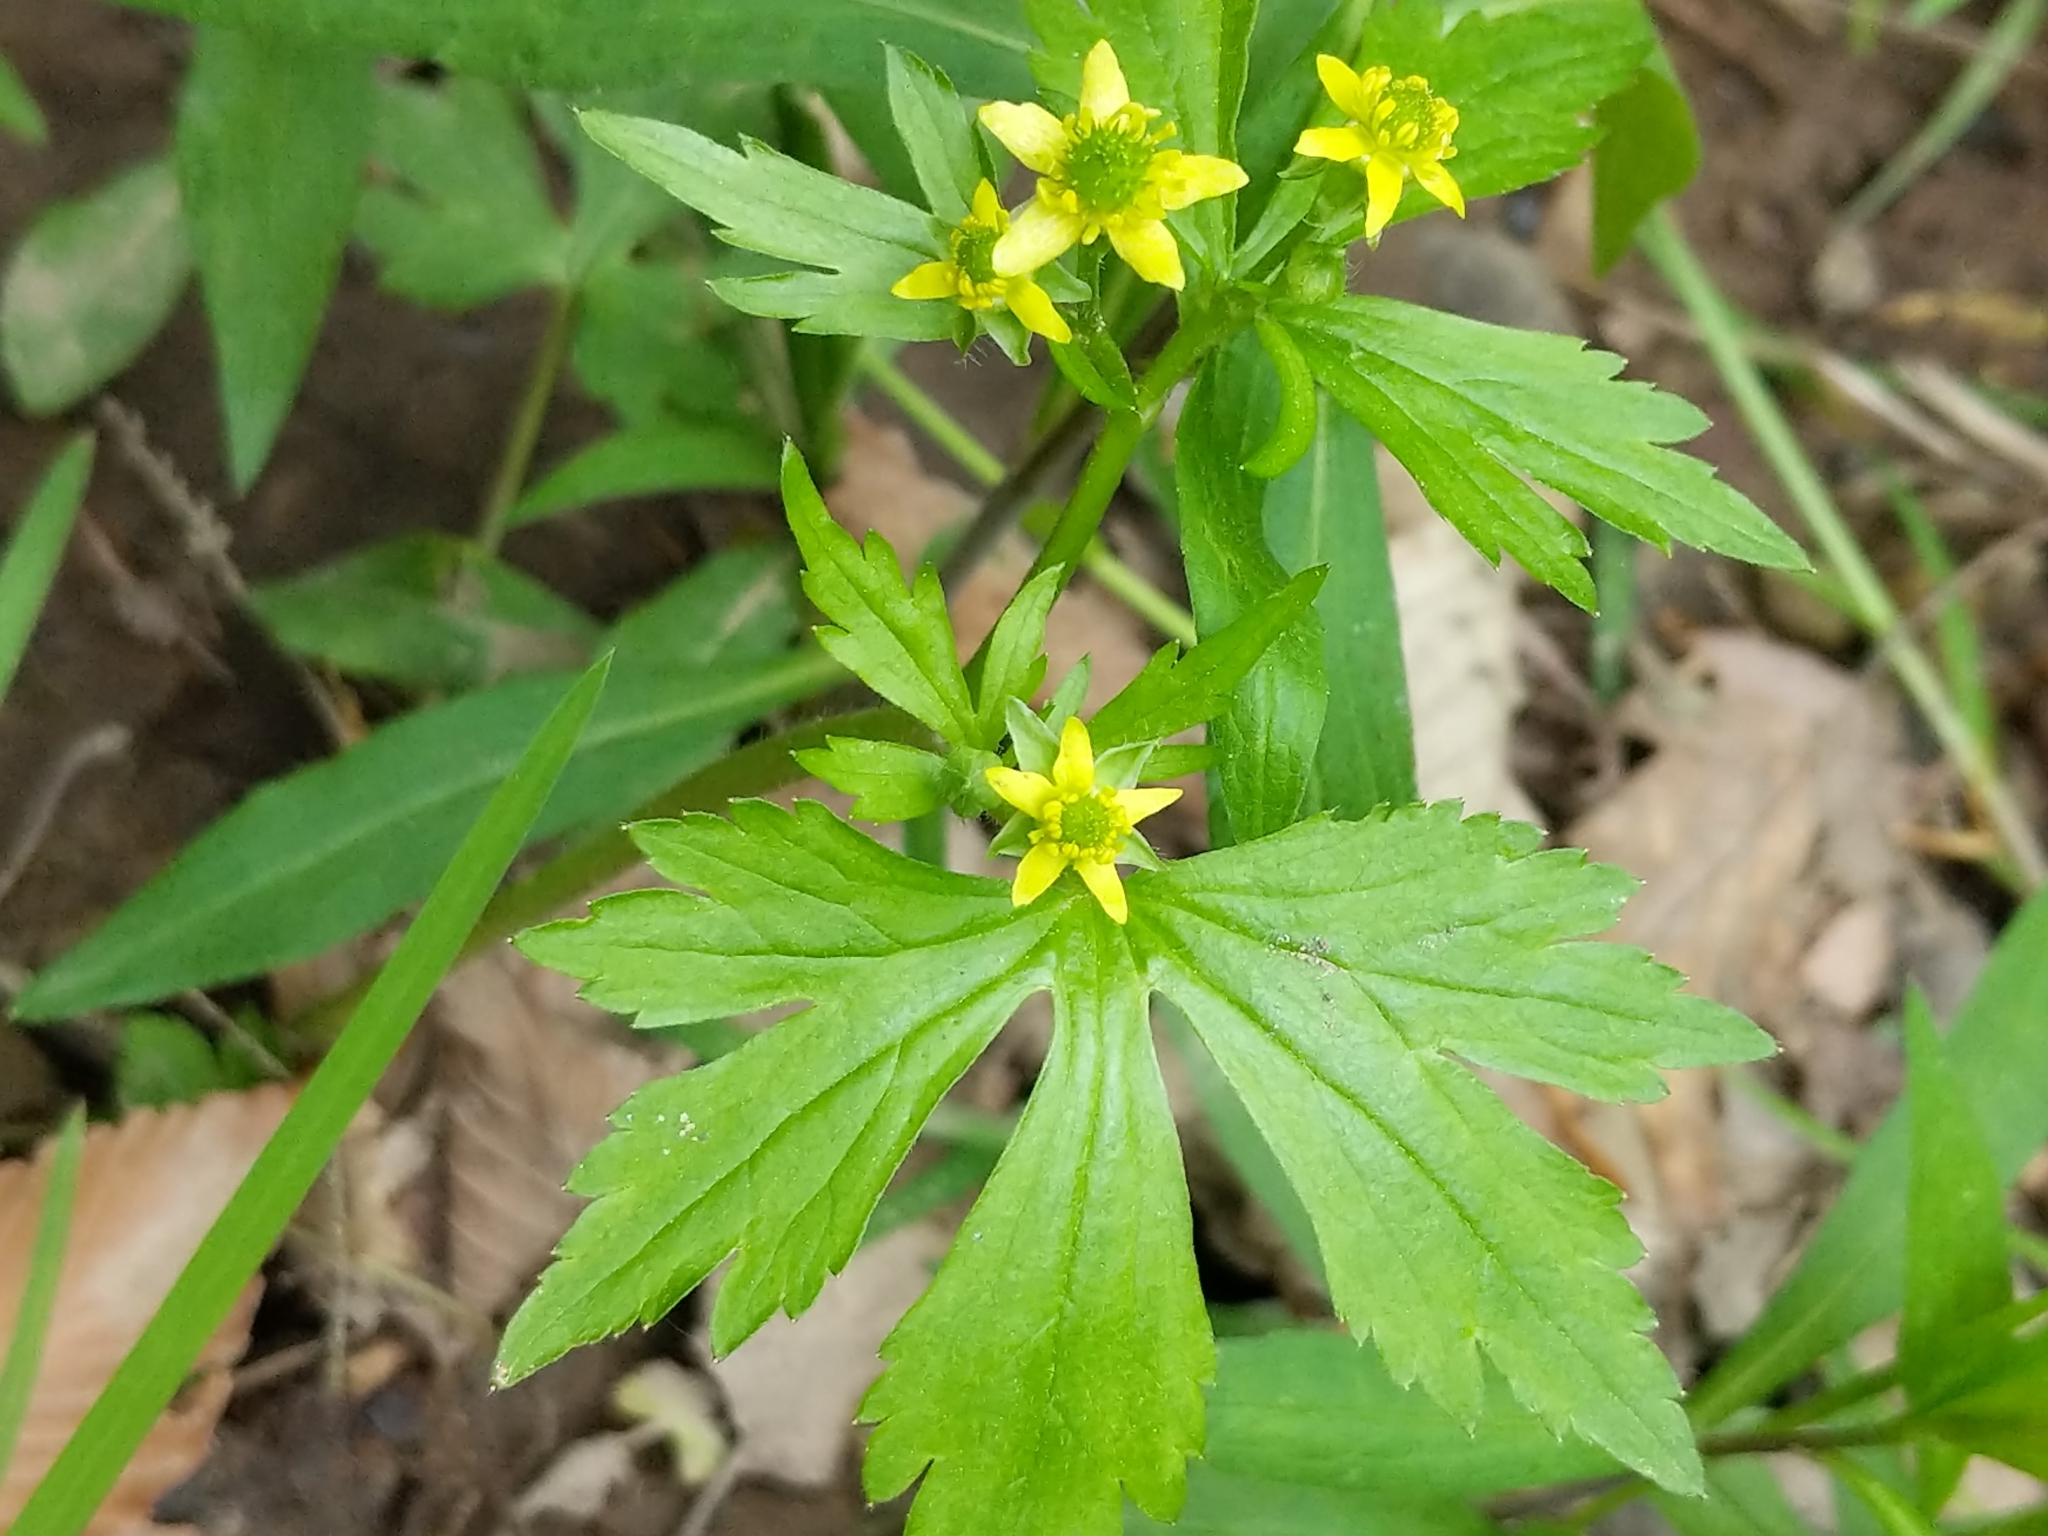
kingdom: Plantae
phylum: Tracheophyta
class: Magnoliopsida
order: Ranunculales
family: Ranunculaceae
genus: Ranunculus
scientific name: Ranunculus recurvatus
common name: Blisterwort
